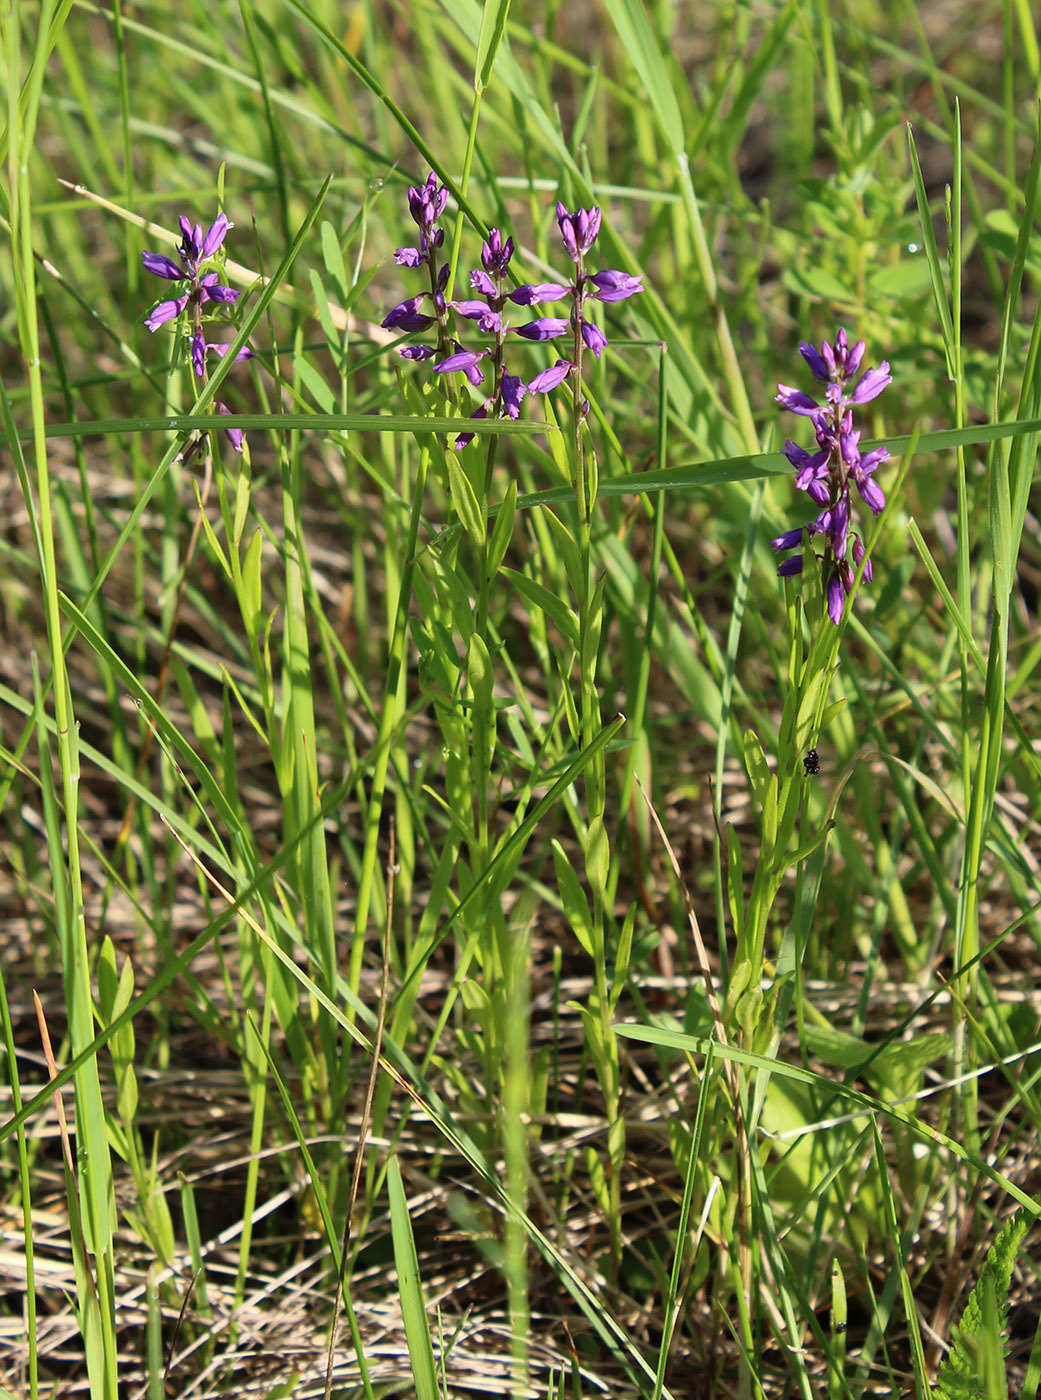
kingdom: Plantae
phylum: Tracheophyta
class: Magnoliopsida
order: Fabales
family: Polygalaceae
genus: Polygala
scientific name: Polygala comosa
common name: Tufted milkwort
